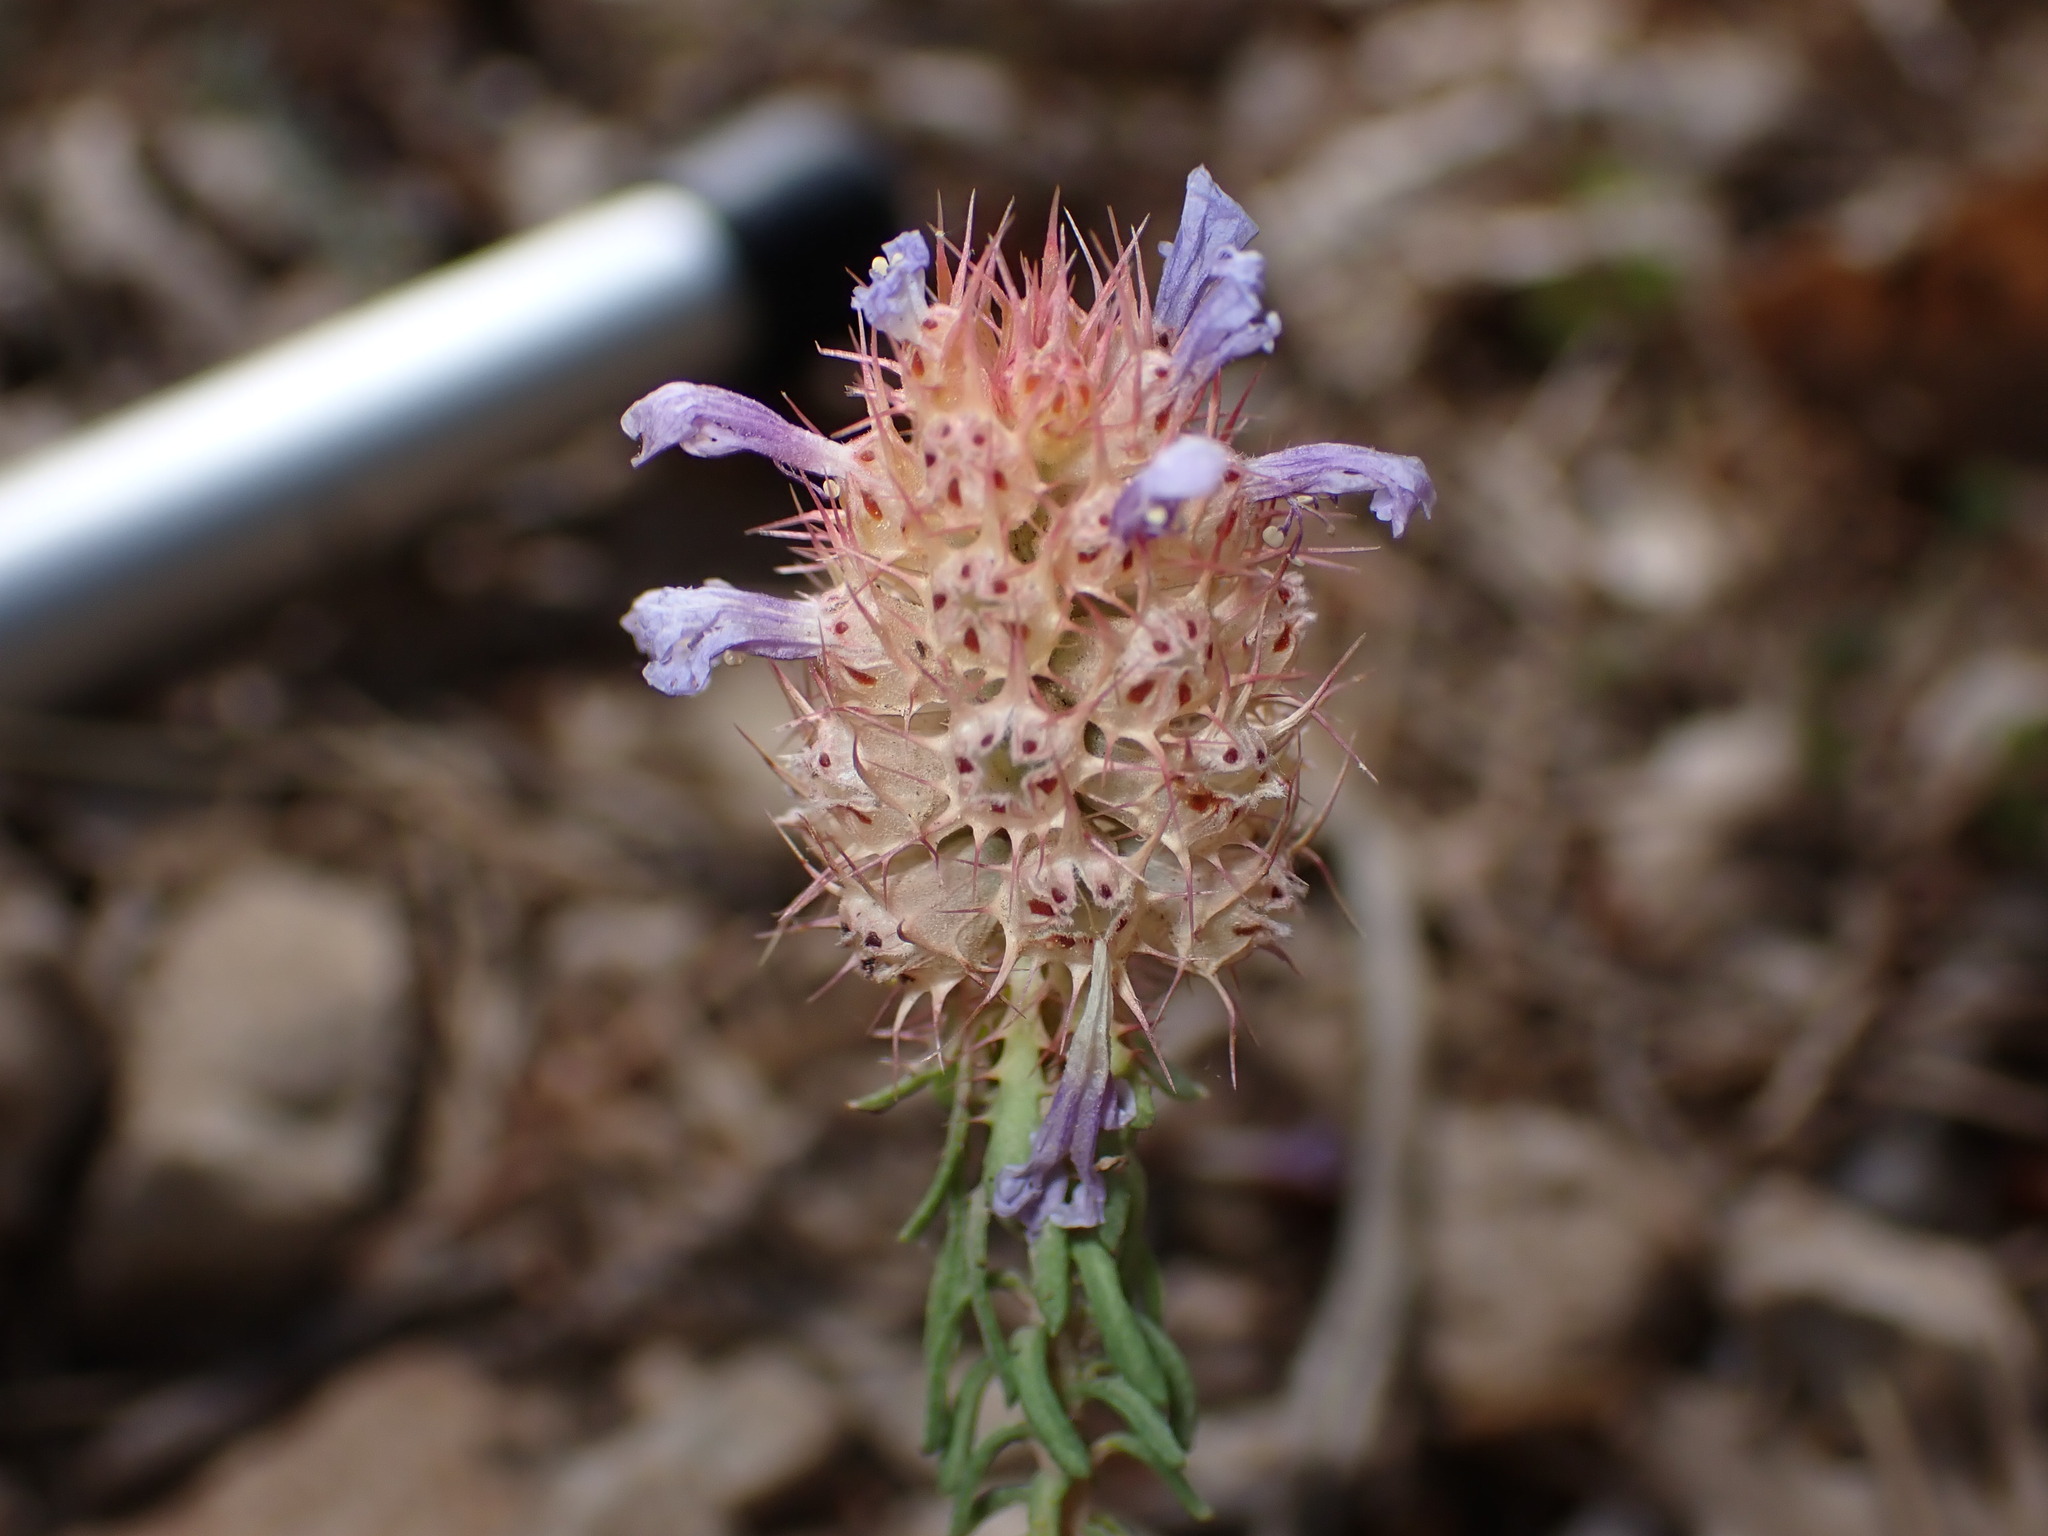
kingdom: Plantae
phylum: Tracheophyta
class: Magnoliopsida
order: Ericales
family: Primulaceae
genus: Coris
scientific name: Coris monspeliensis
